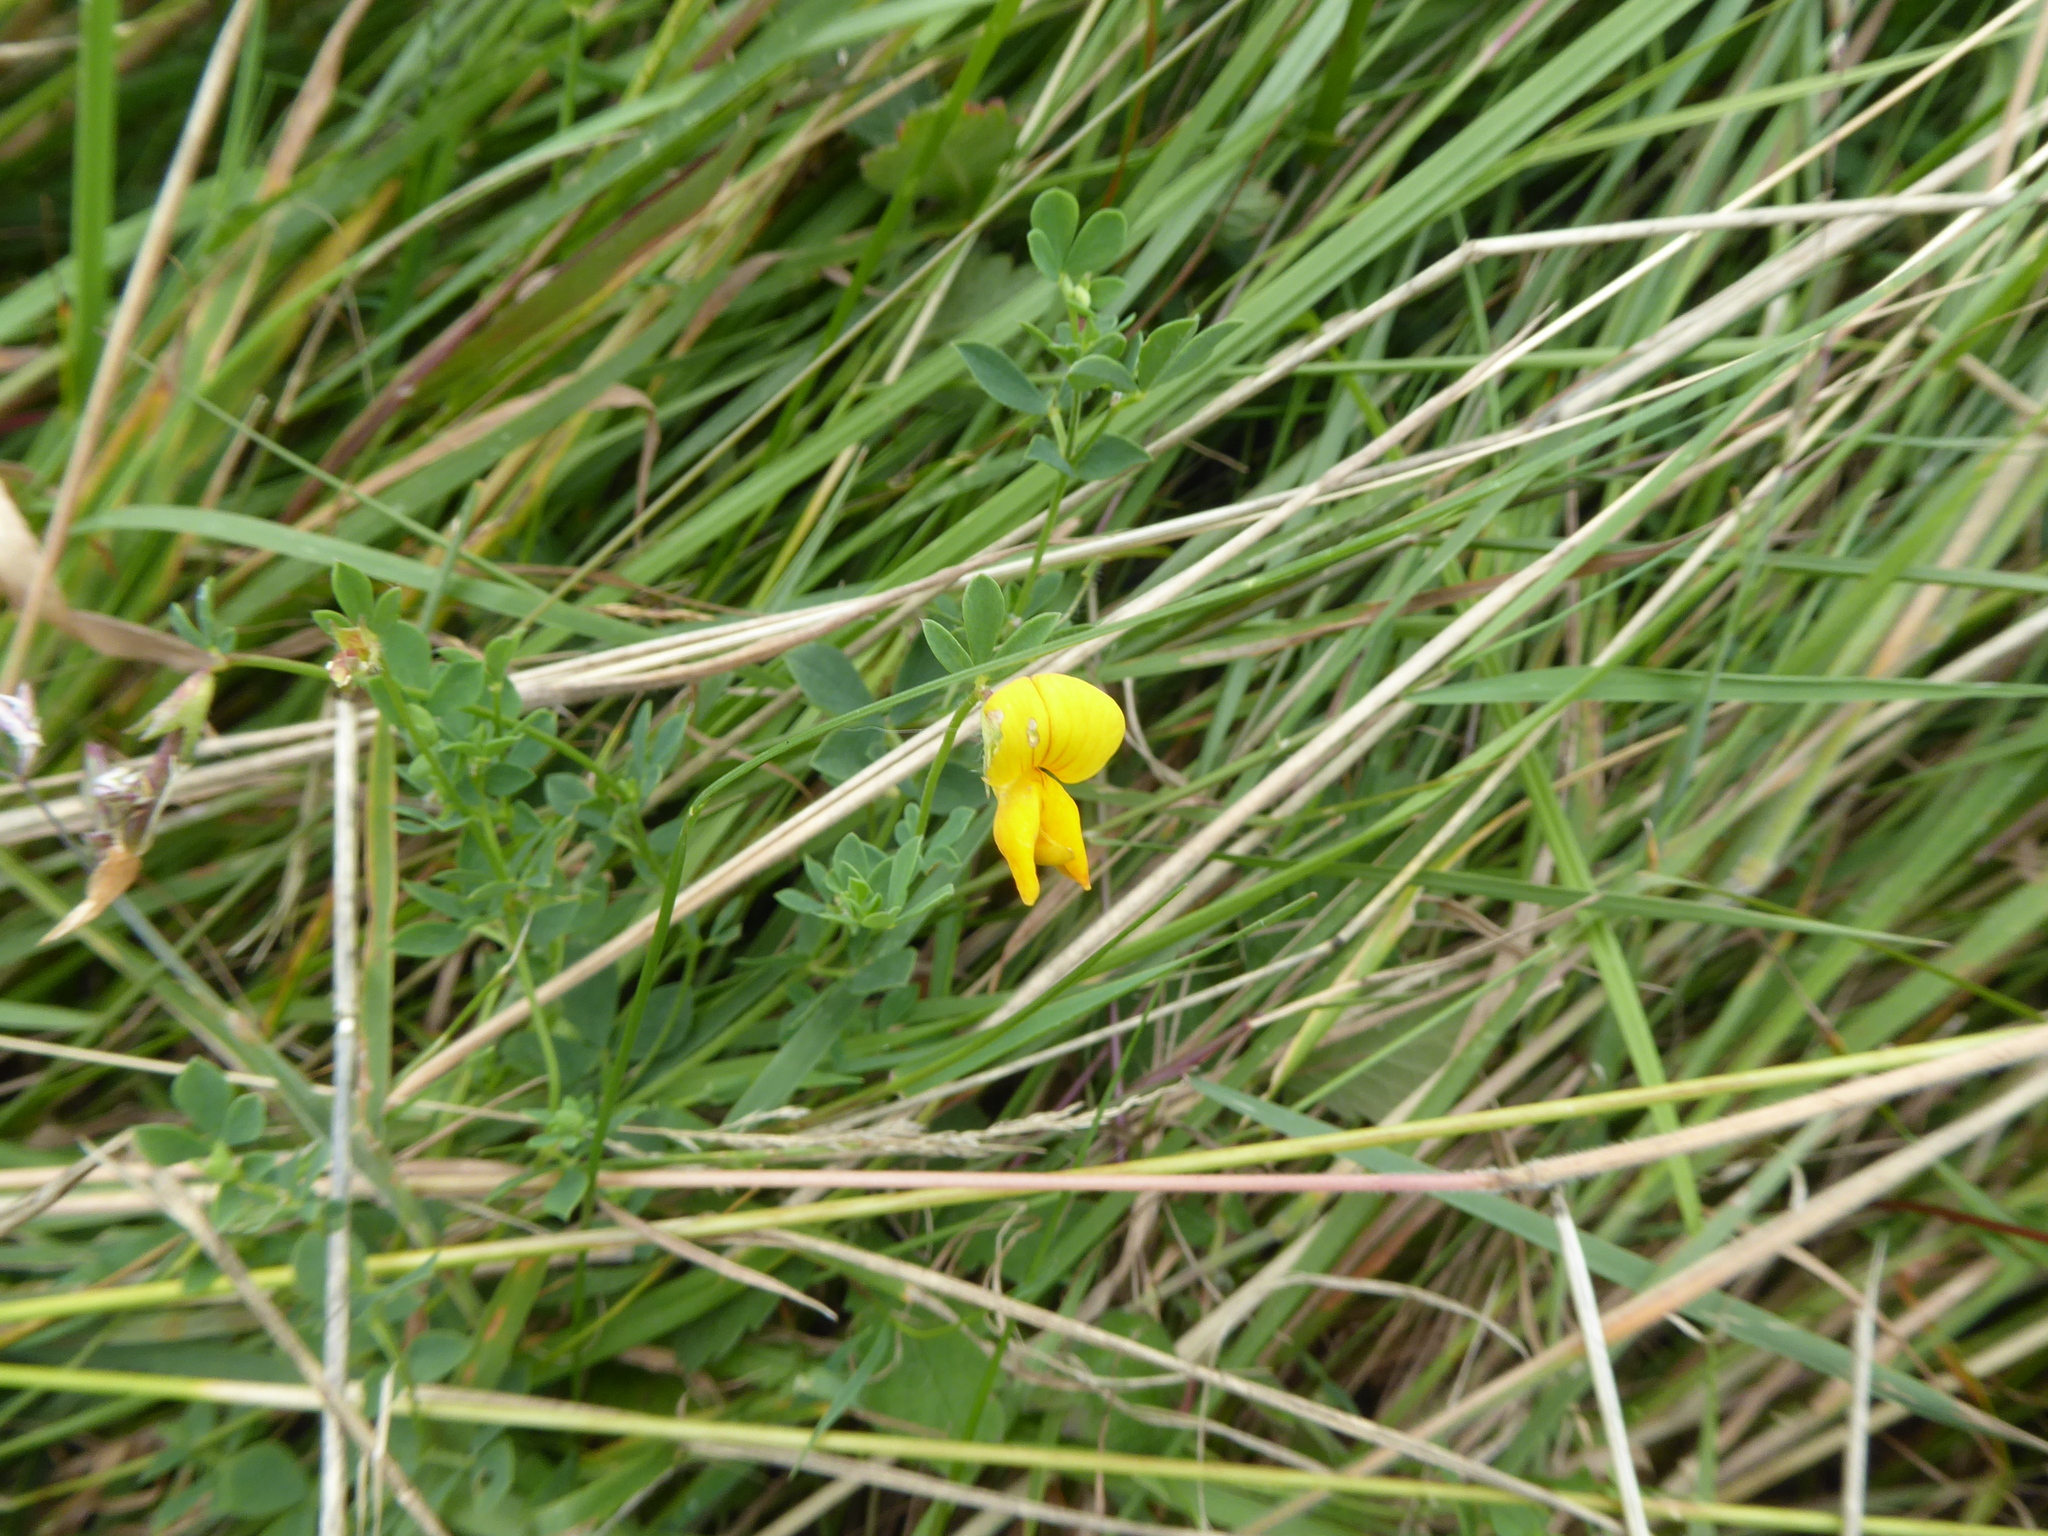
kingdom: Plantae
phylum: Tracheophyta
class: Magnoliopsida
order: Fabales
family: Fabaceae
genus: Lotus
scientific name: Lotus corniculatus
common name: Common bird's-foot-trefoil
